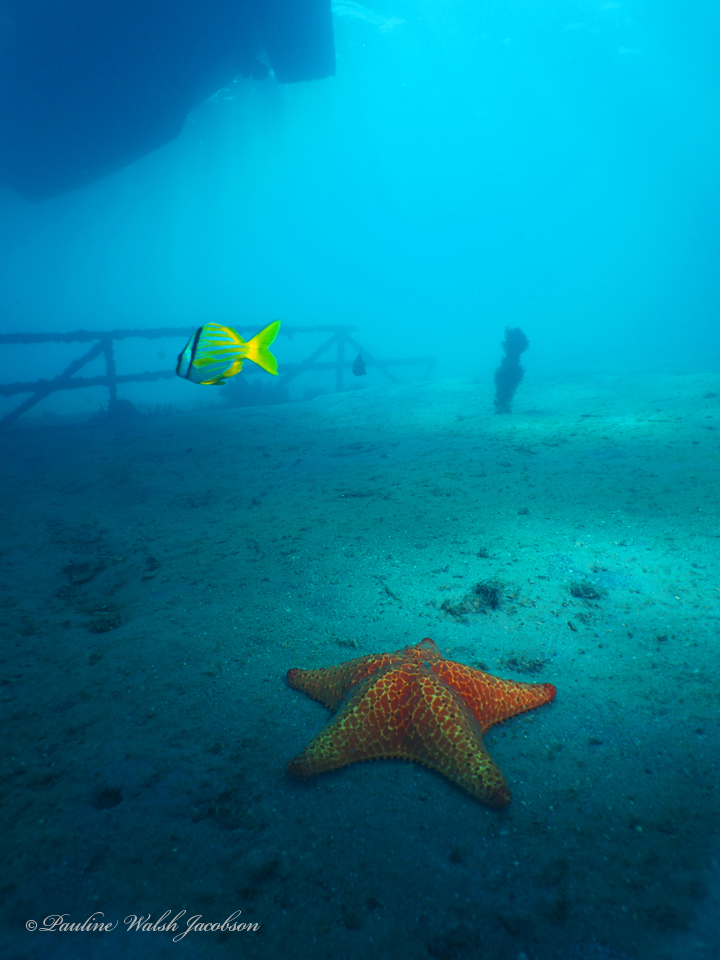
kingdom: Animalia
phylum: Echinodermata
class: Asteroidea
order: Valvatida
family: Oreasteridae
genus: Oreaster
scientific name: Oreaster reticulatus
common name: Cushion sea star
